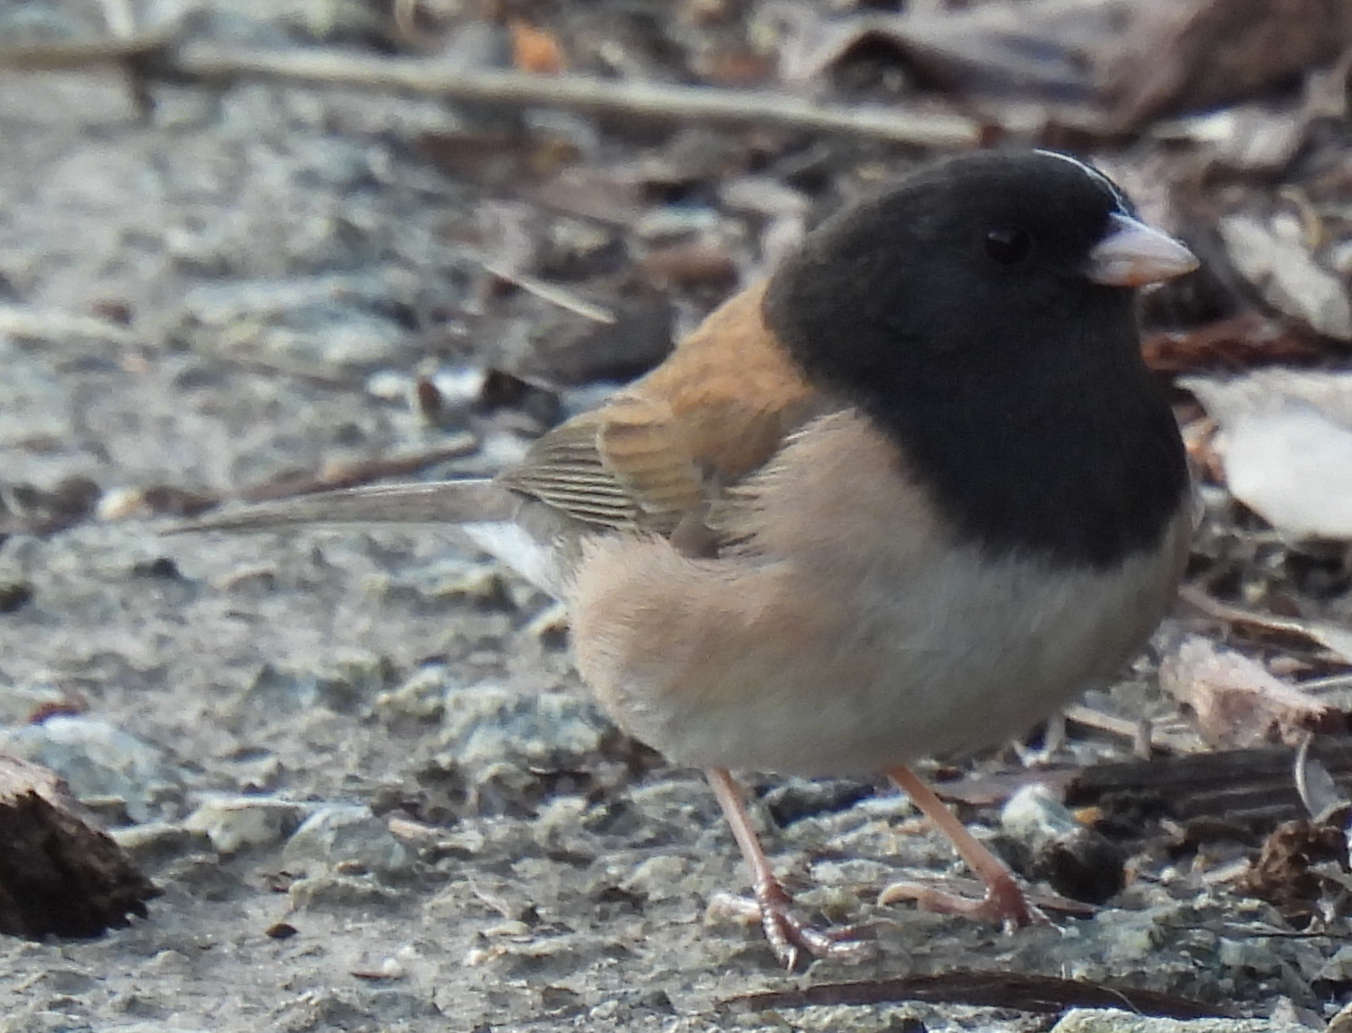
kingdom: Animalia
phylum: Chordata
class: Aves
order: Passeriformes
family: Passerellidae
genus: Junco
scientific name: Junco hyemalis
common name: Dark-eyed junco
